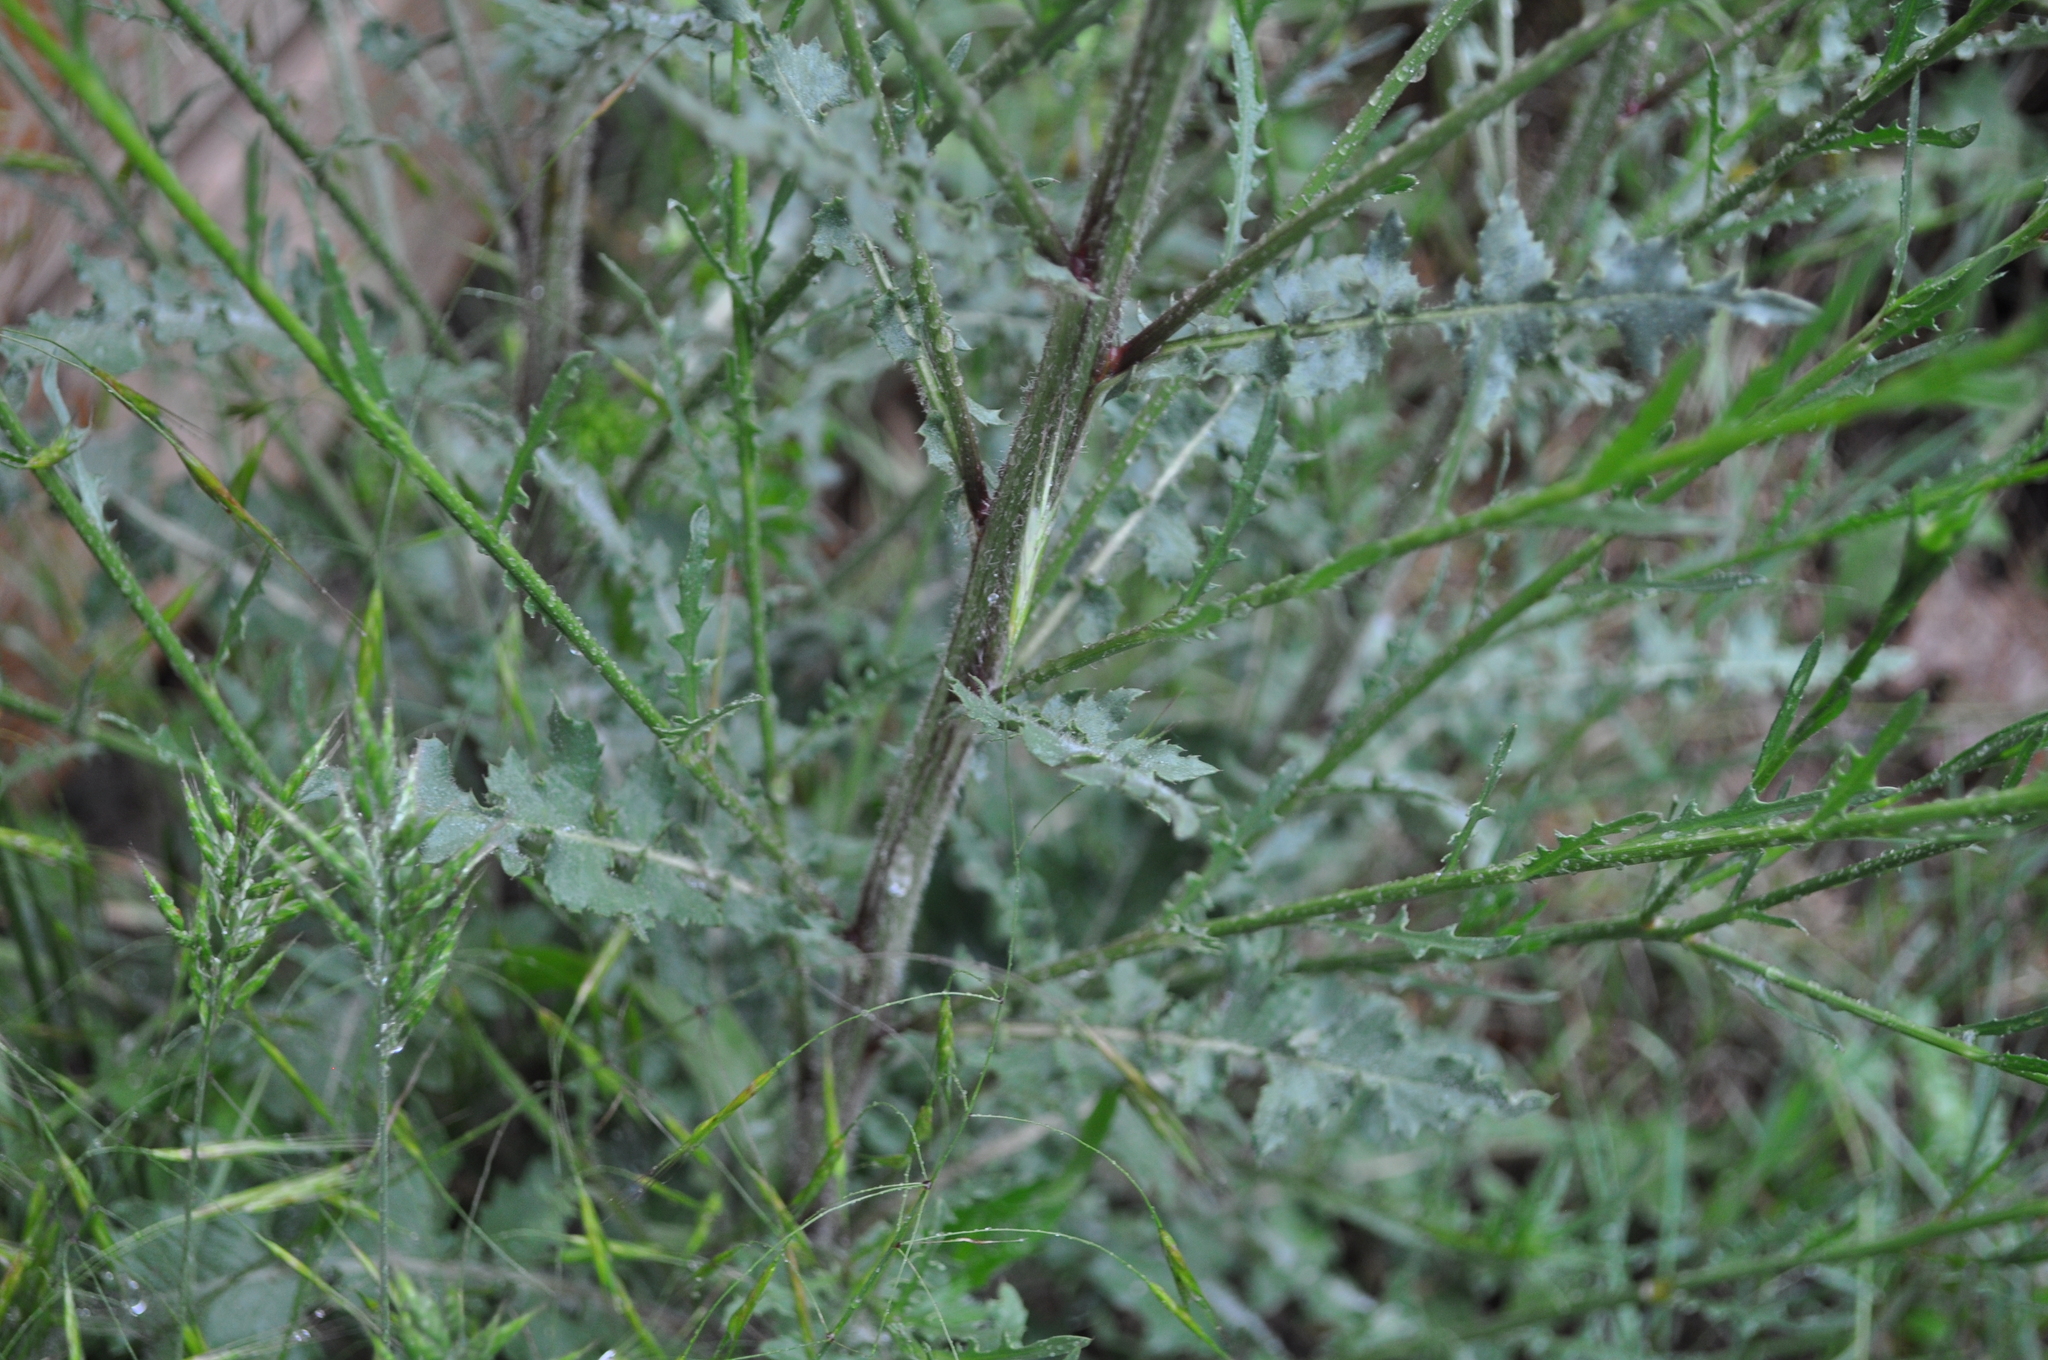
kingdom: Plantae
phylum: Tracheophyta
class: Magnoliopsida
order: Asterales
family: Asteraceae
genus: Mantisalca
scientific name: Mantisalca salmantica
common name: Dagger flower
